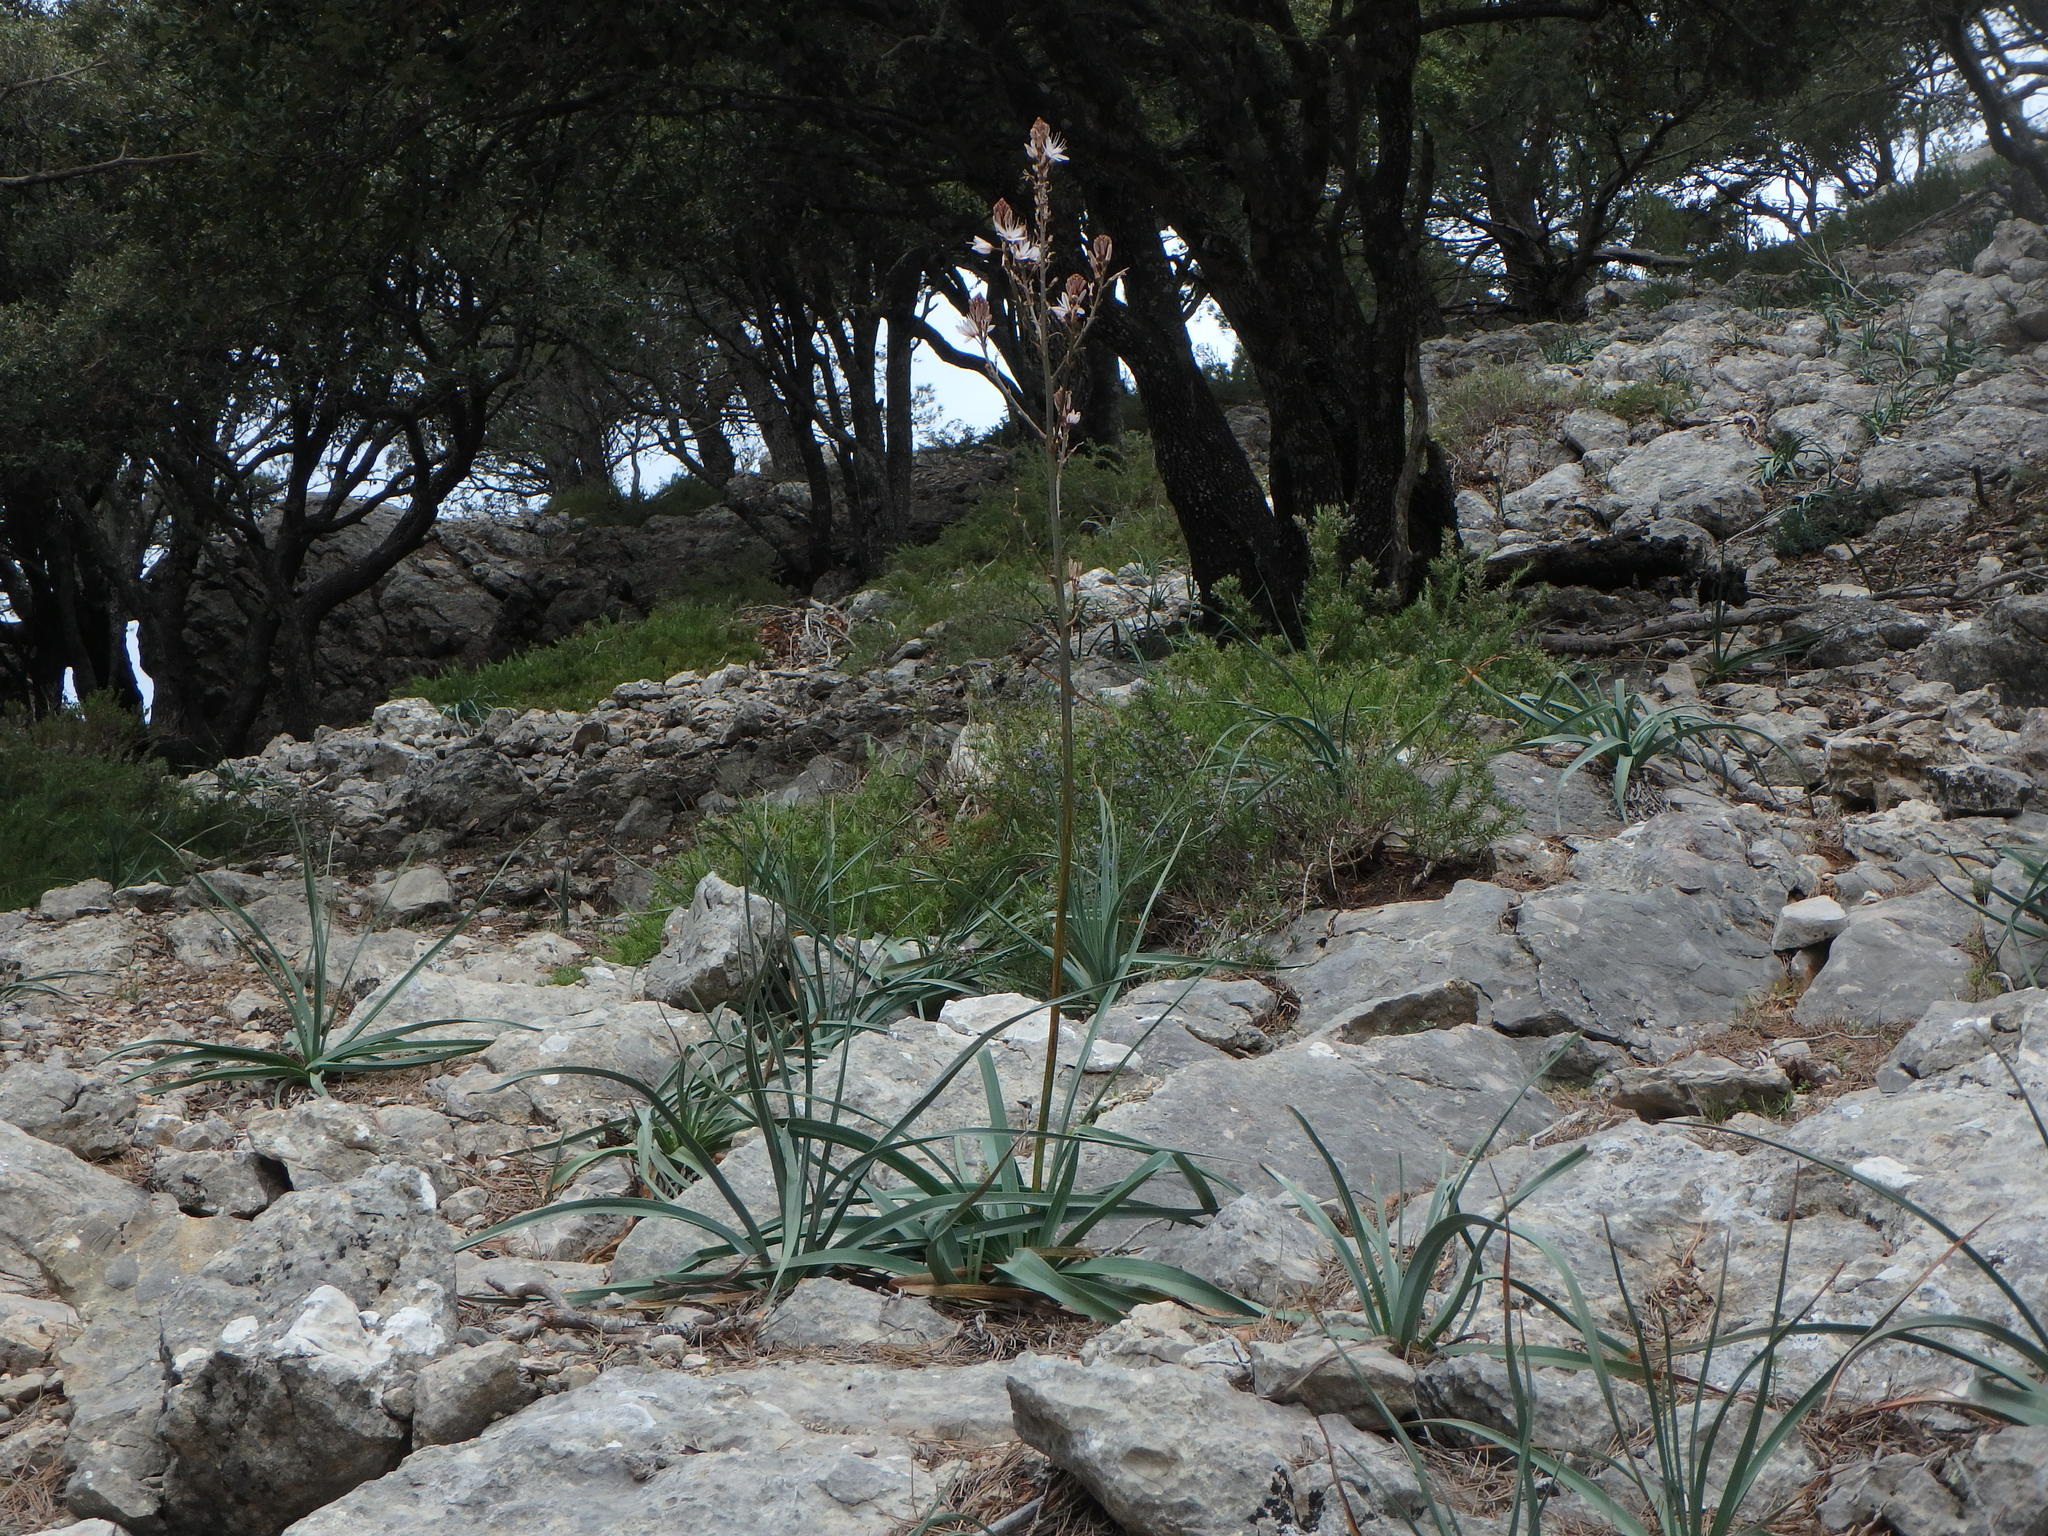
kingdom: Plantae
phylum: Tracheophyta
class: Liliopsida
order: Asparagales
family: Asphodelaceae
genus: Asphodelus
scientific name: Asphodelus aestivus
